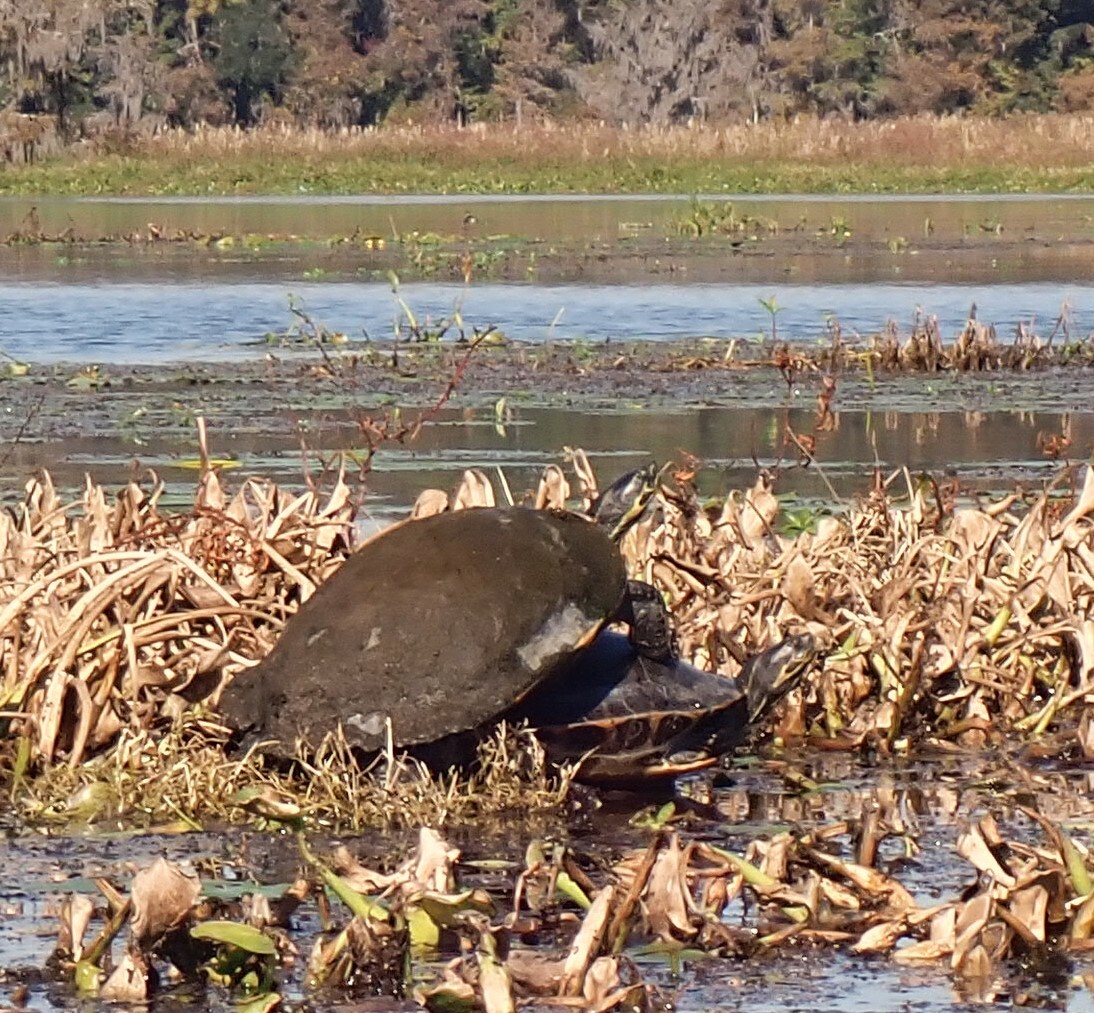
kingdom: Animalia
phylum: Chordata
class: Testudines
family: Emydidae
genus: Pseudemys
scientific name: Pseudemys concinna
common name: Eastern river cooter
